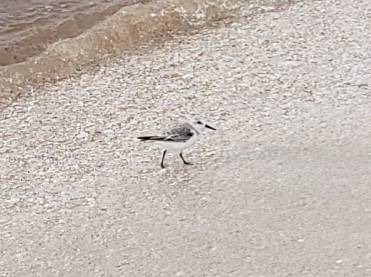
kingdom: Animalia
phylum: Chordata
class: Aves
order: Charadriiformes
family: Scolopacidae
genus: Calidris
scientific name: Calidris alba
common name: Sanderling
